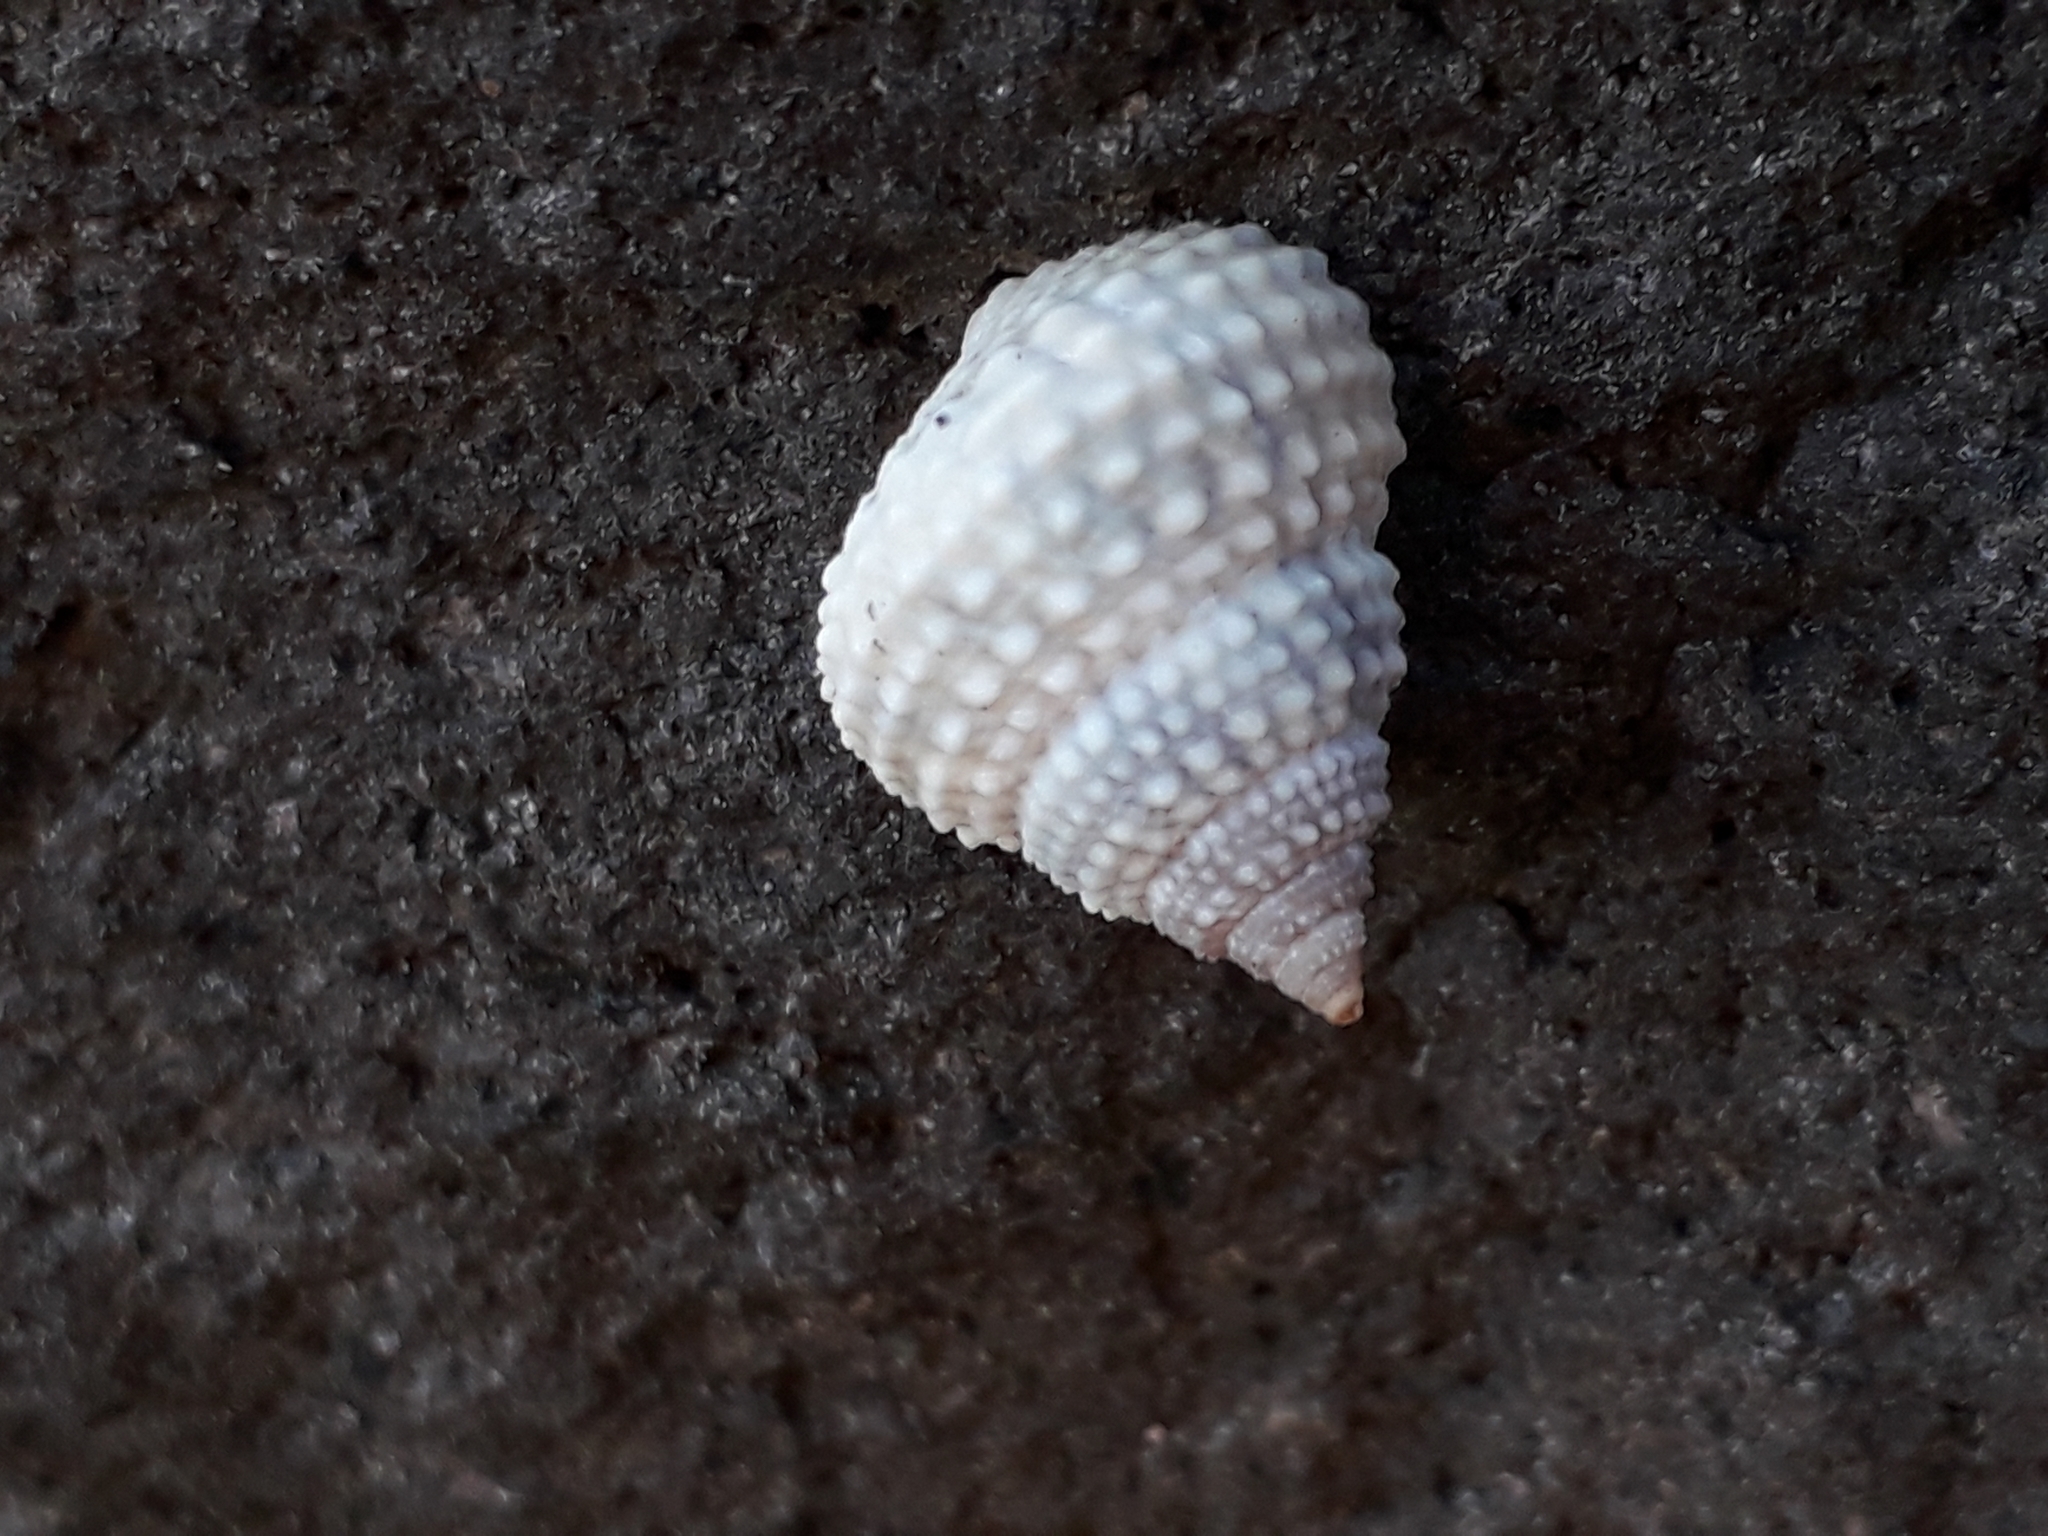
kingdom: Animalia
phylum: Mollusca
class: Gastropoda
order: Littorinimorpha
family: Littorinidae
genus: Cenchritis
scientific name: Cenchritis muricatus
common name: Beaded periwinkle
